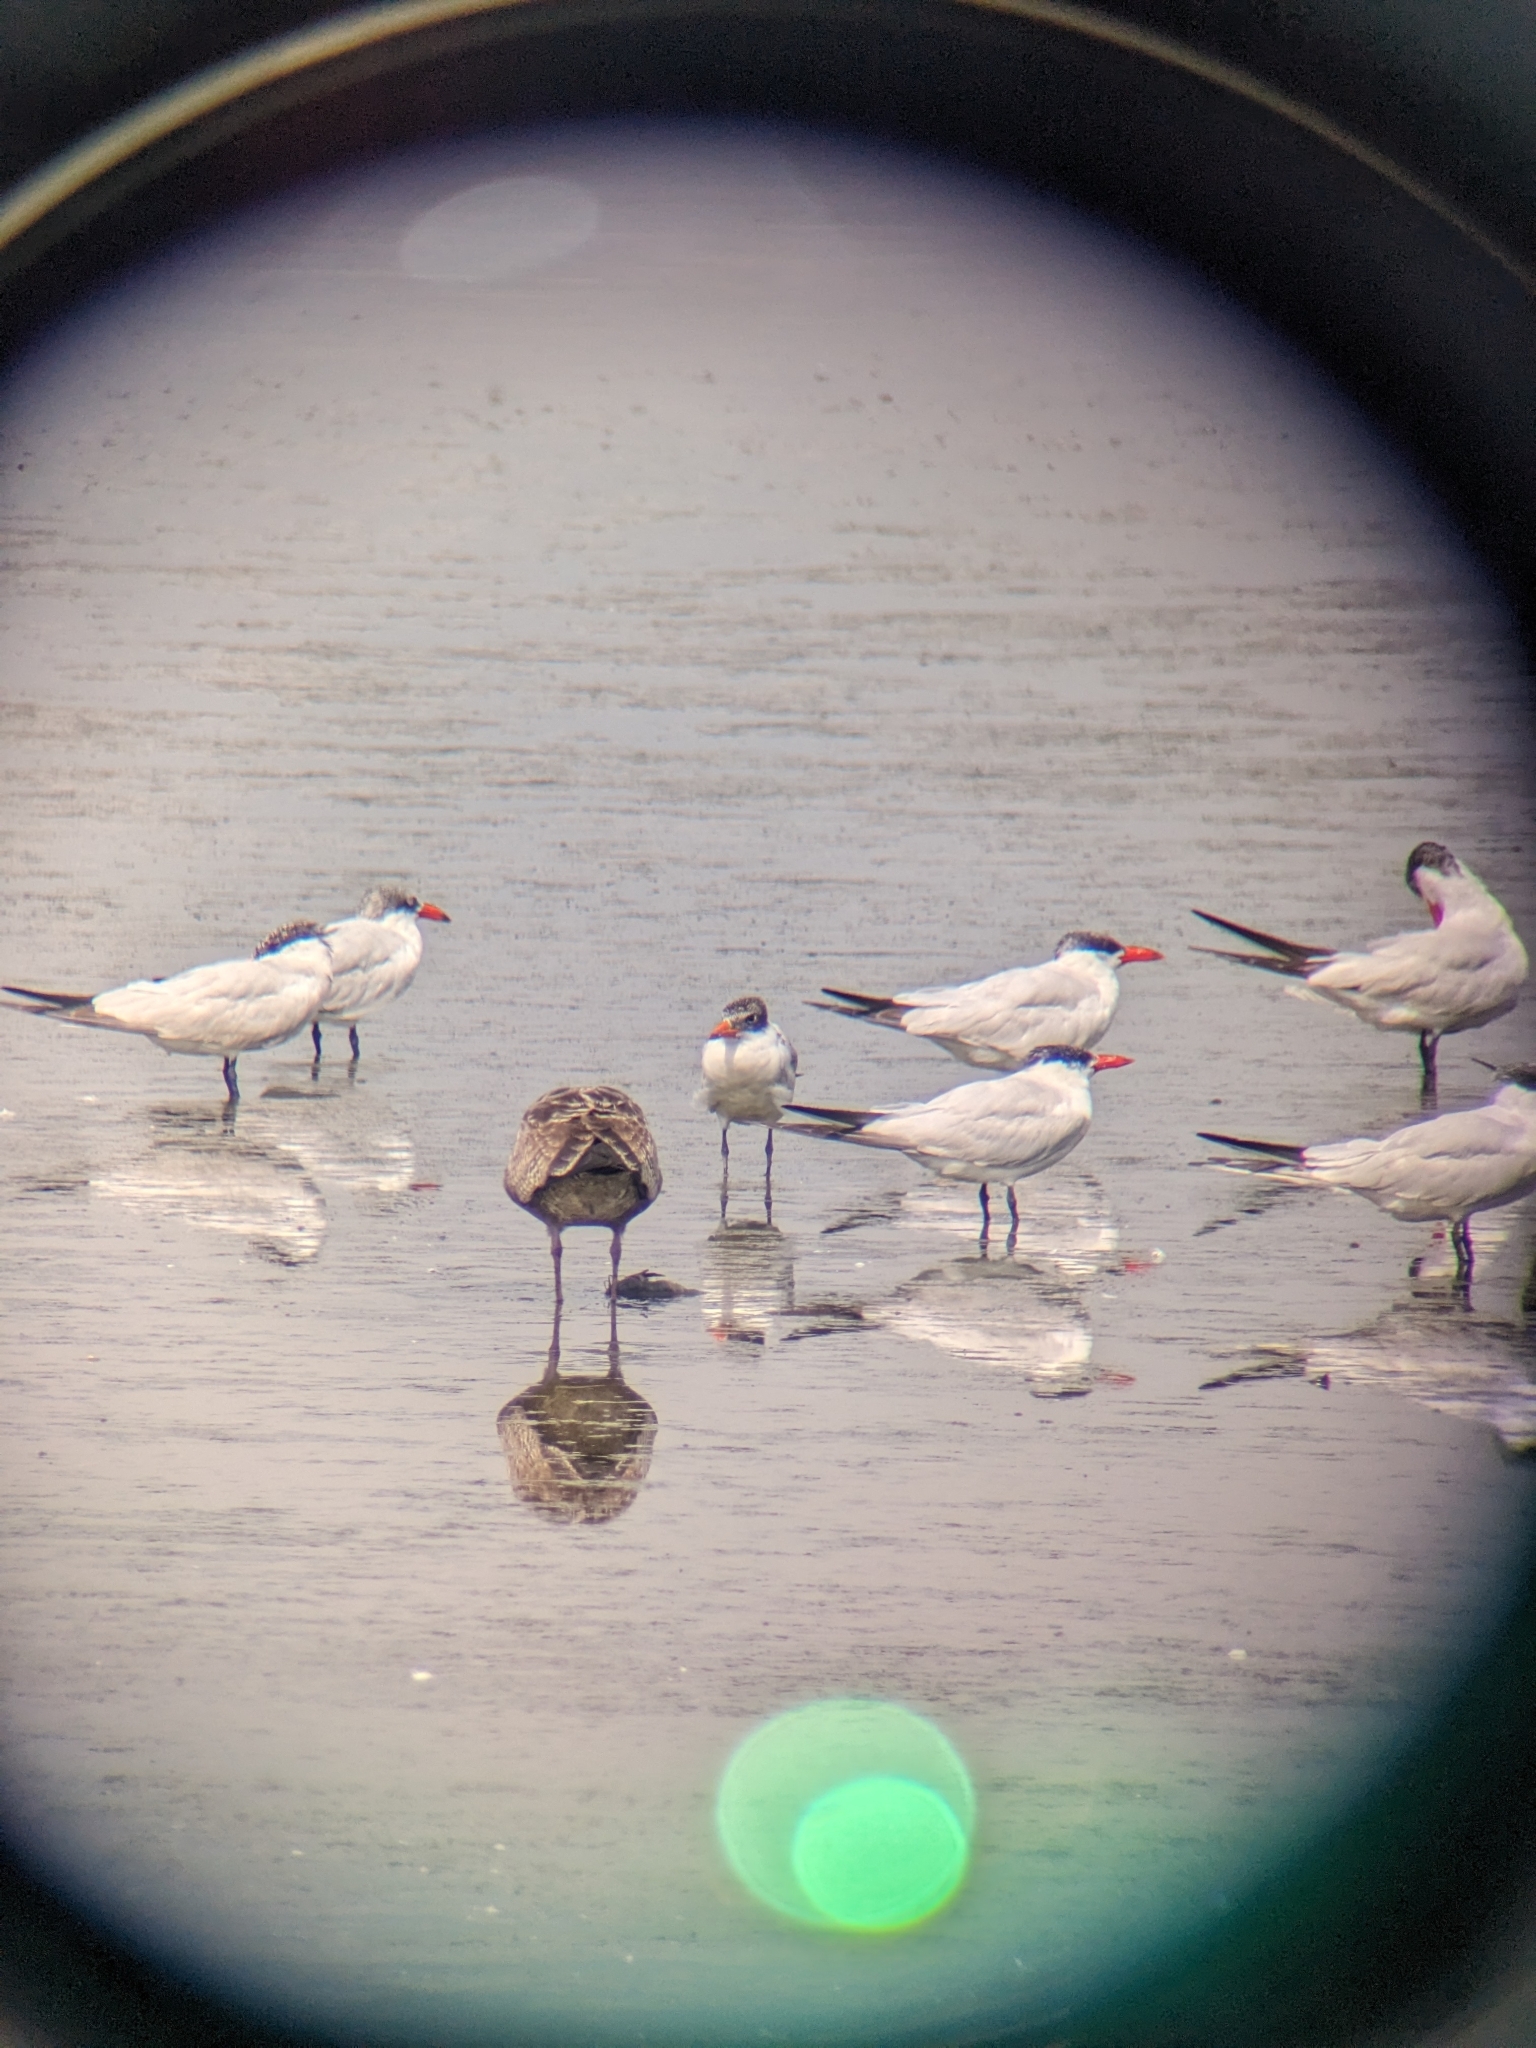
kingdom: Animalia
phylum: Chordata
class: Aves
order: Charadriiformes
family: Laridae
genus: Hydroprogne
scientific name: Hydroprogne caspia
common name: Caspian tern
